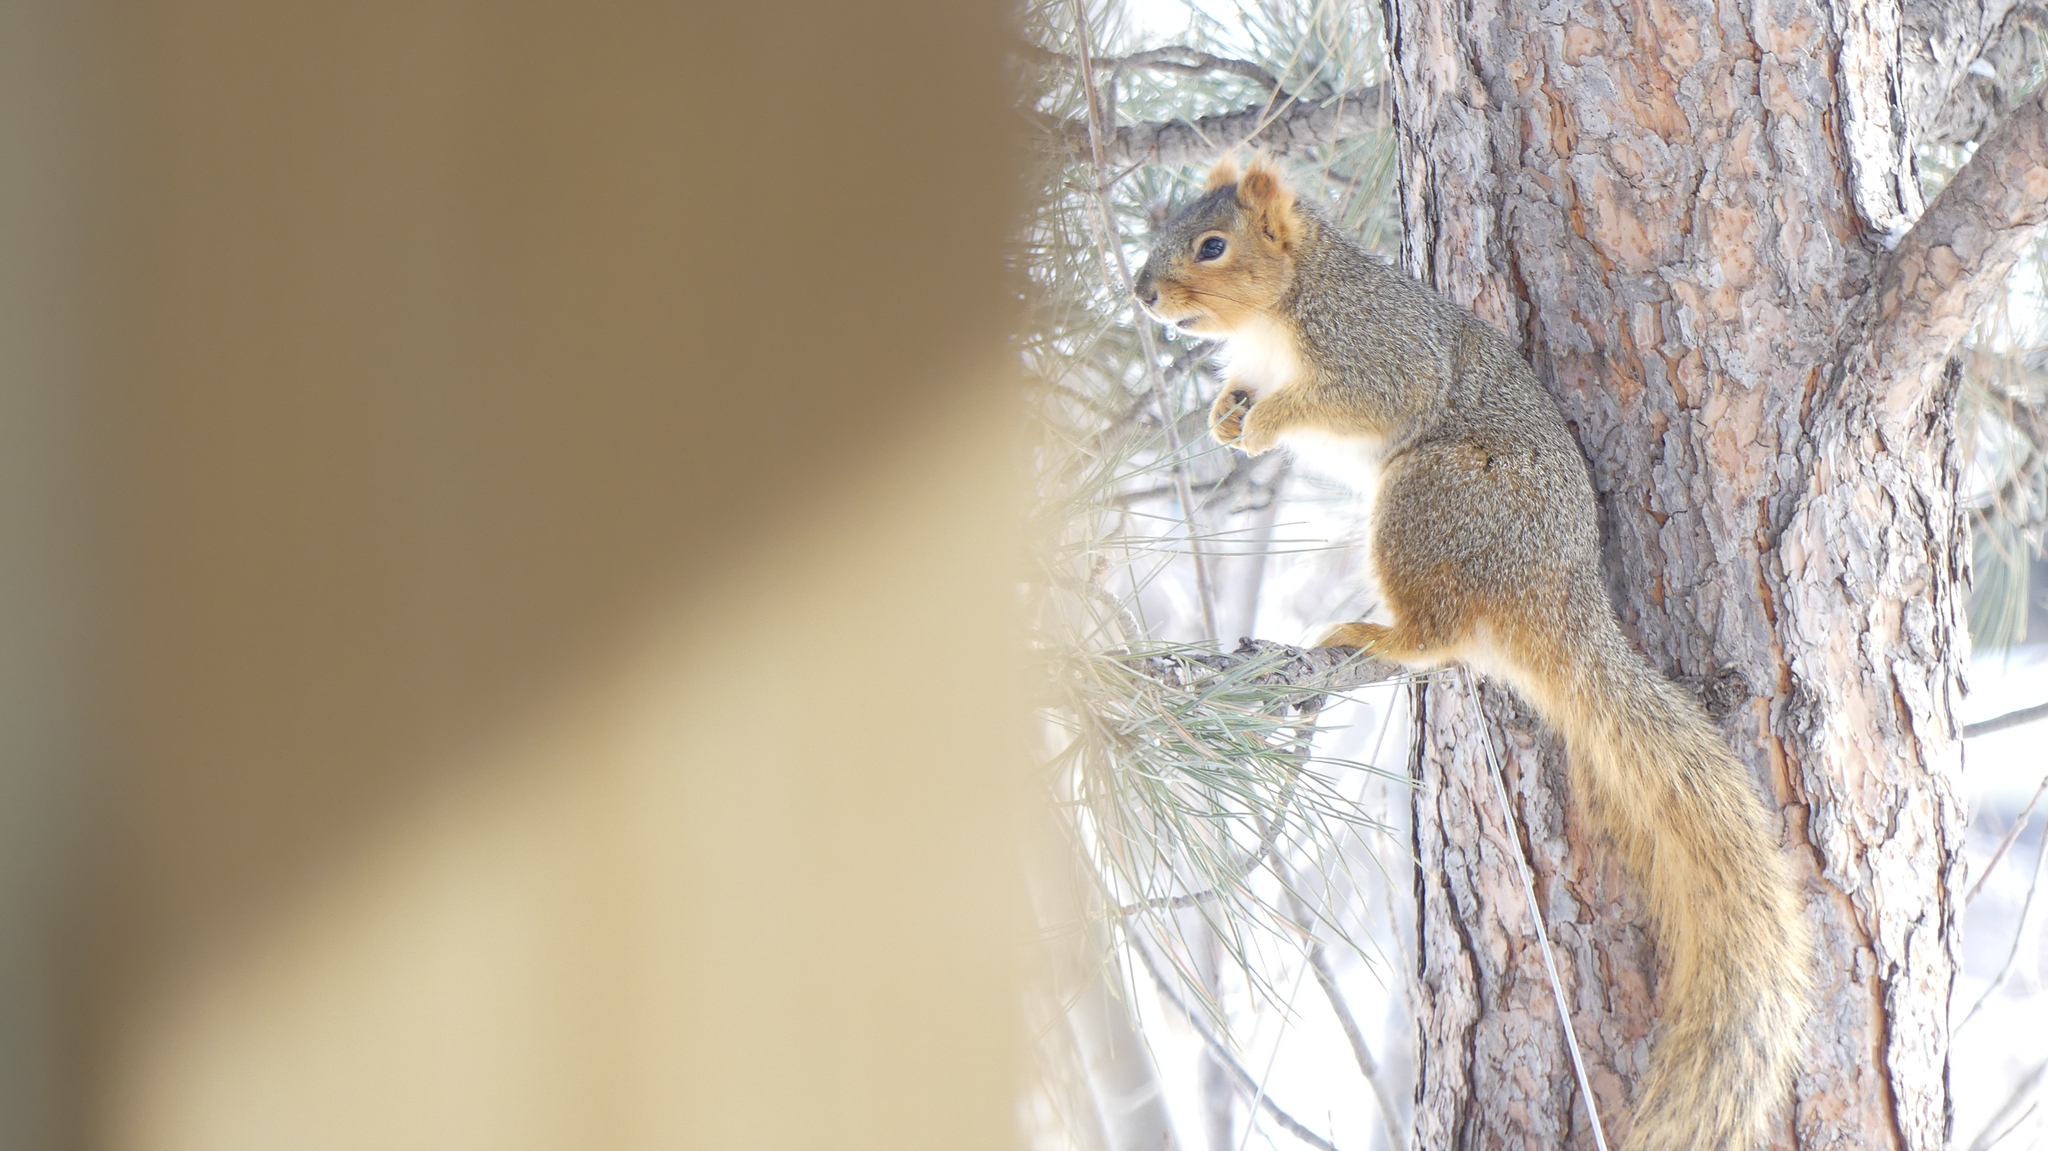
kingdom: Animalia
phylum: Chordata
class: Mammalia
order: Rodentia
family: Sciuridae
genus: Sciurus
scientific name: Sciurus niger
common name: Fox squirrel
